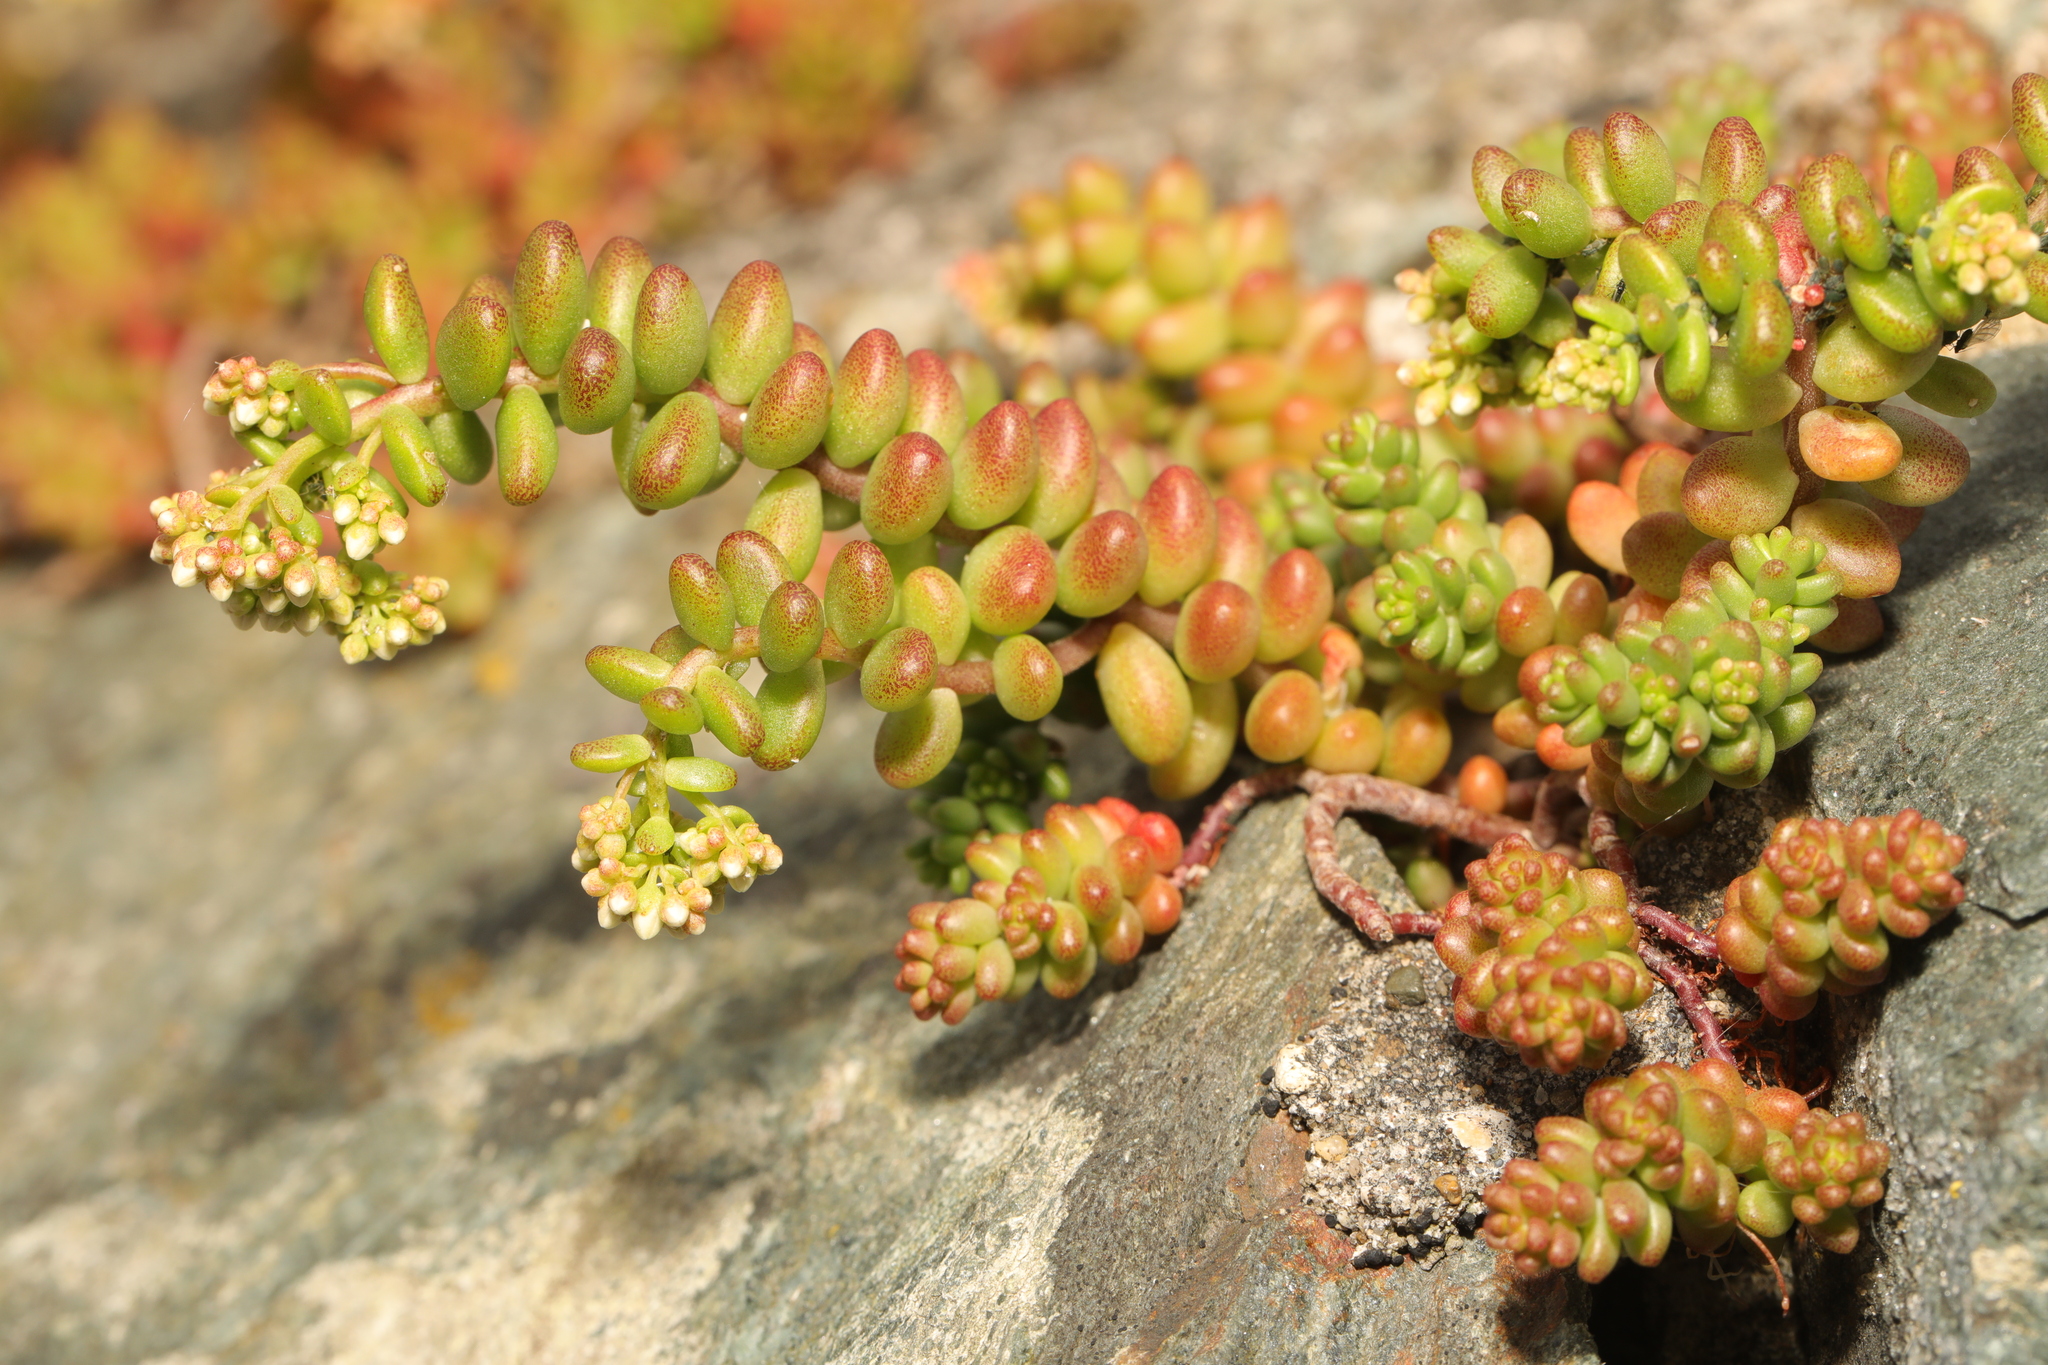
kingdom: Plantae
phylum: Tracheophyta
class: Magnoliopsida
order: Saxifragales
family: Crassulaceae
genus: Sedum
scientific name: Sedum album
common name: White stonecrop
